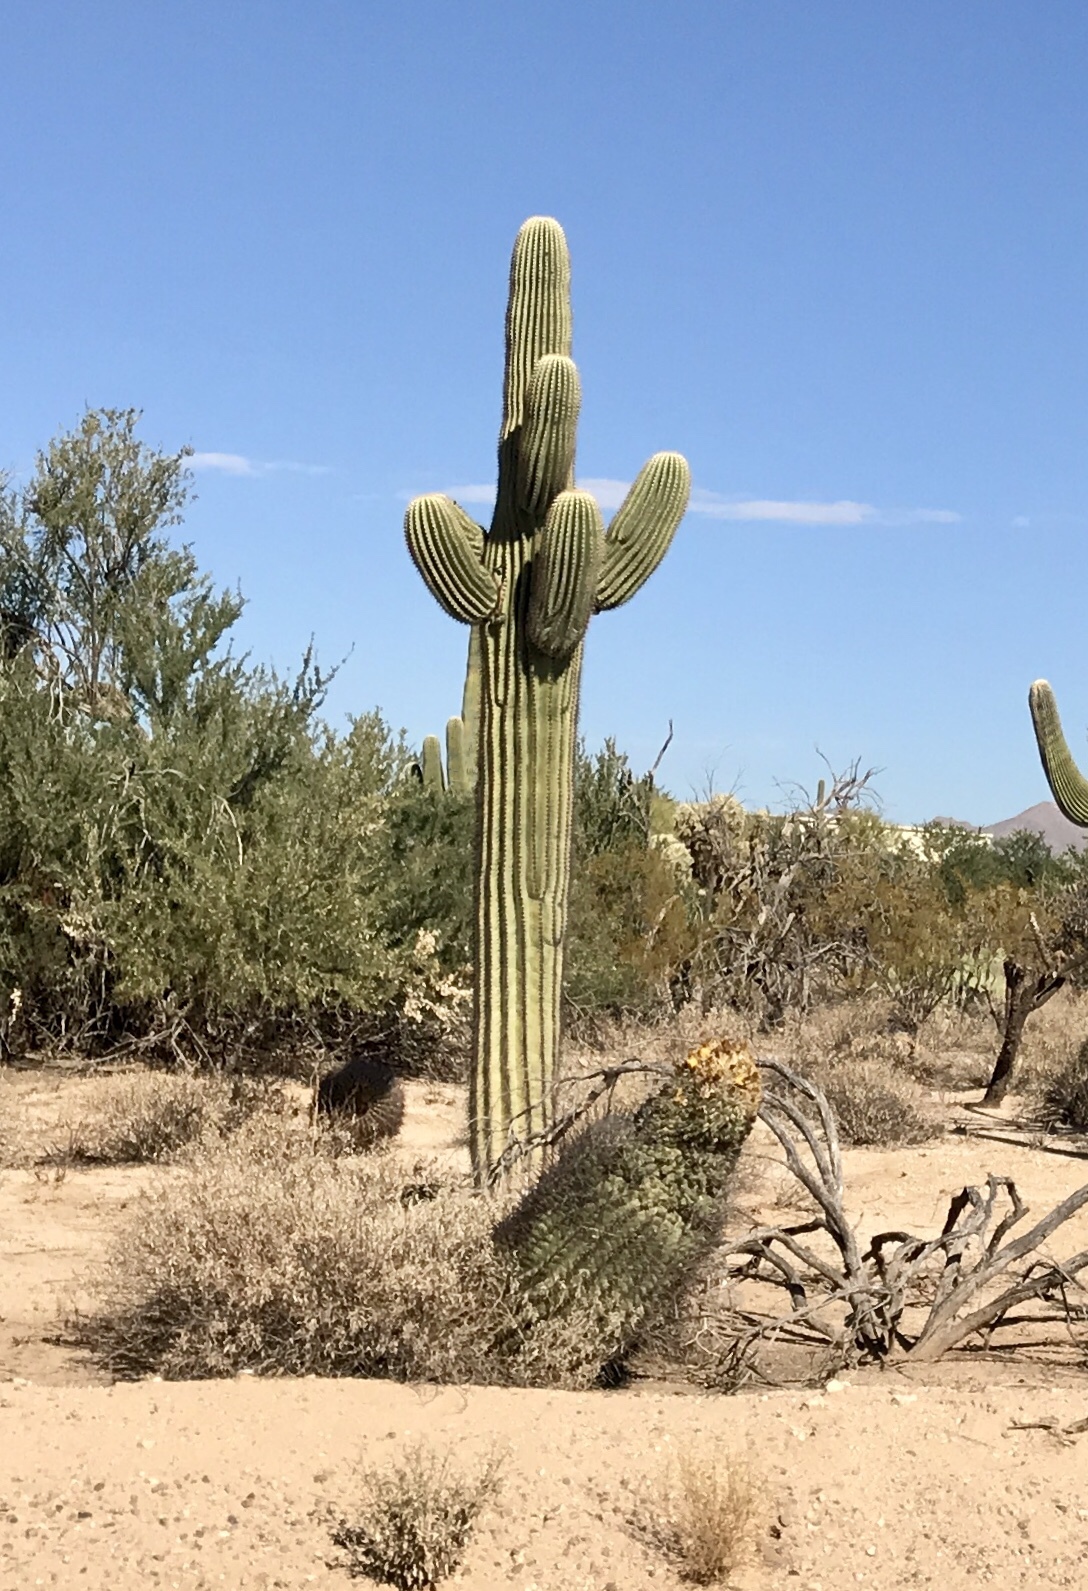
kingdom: Plantae
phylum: Tracheophyta
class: Magnoliopsida
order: Caryophyllales
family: Cactaceae
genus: Carnegiea
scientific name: Carnegiea gigantea
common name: Saguaro
